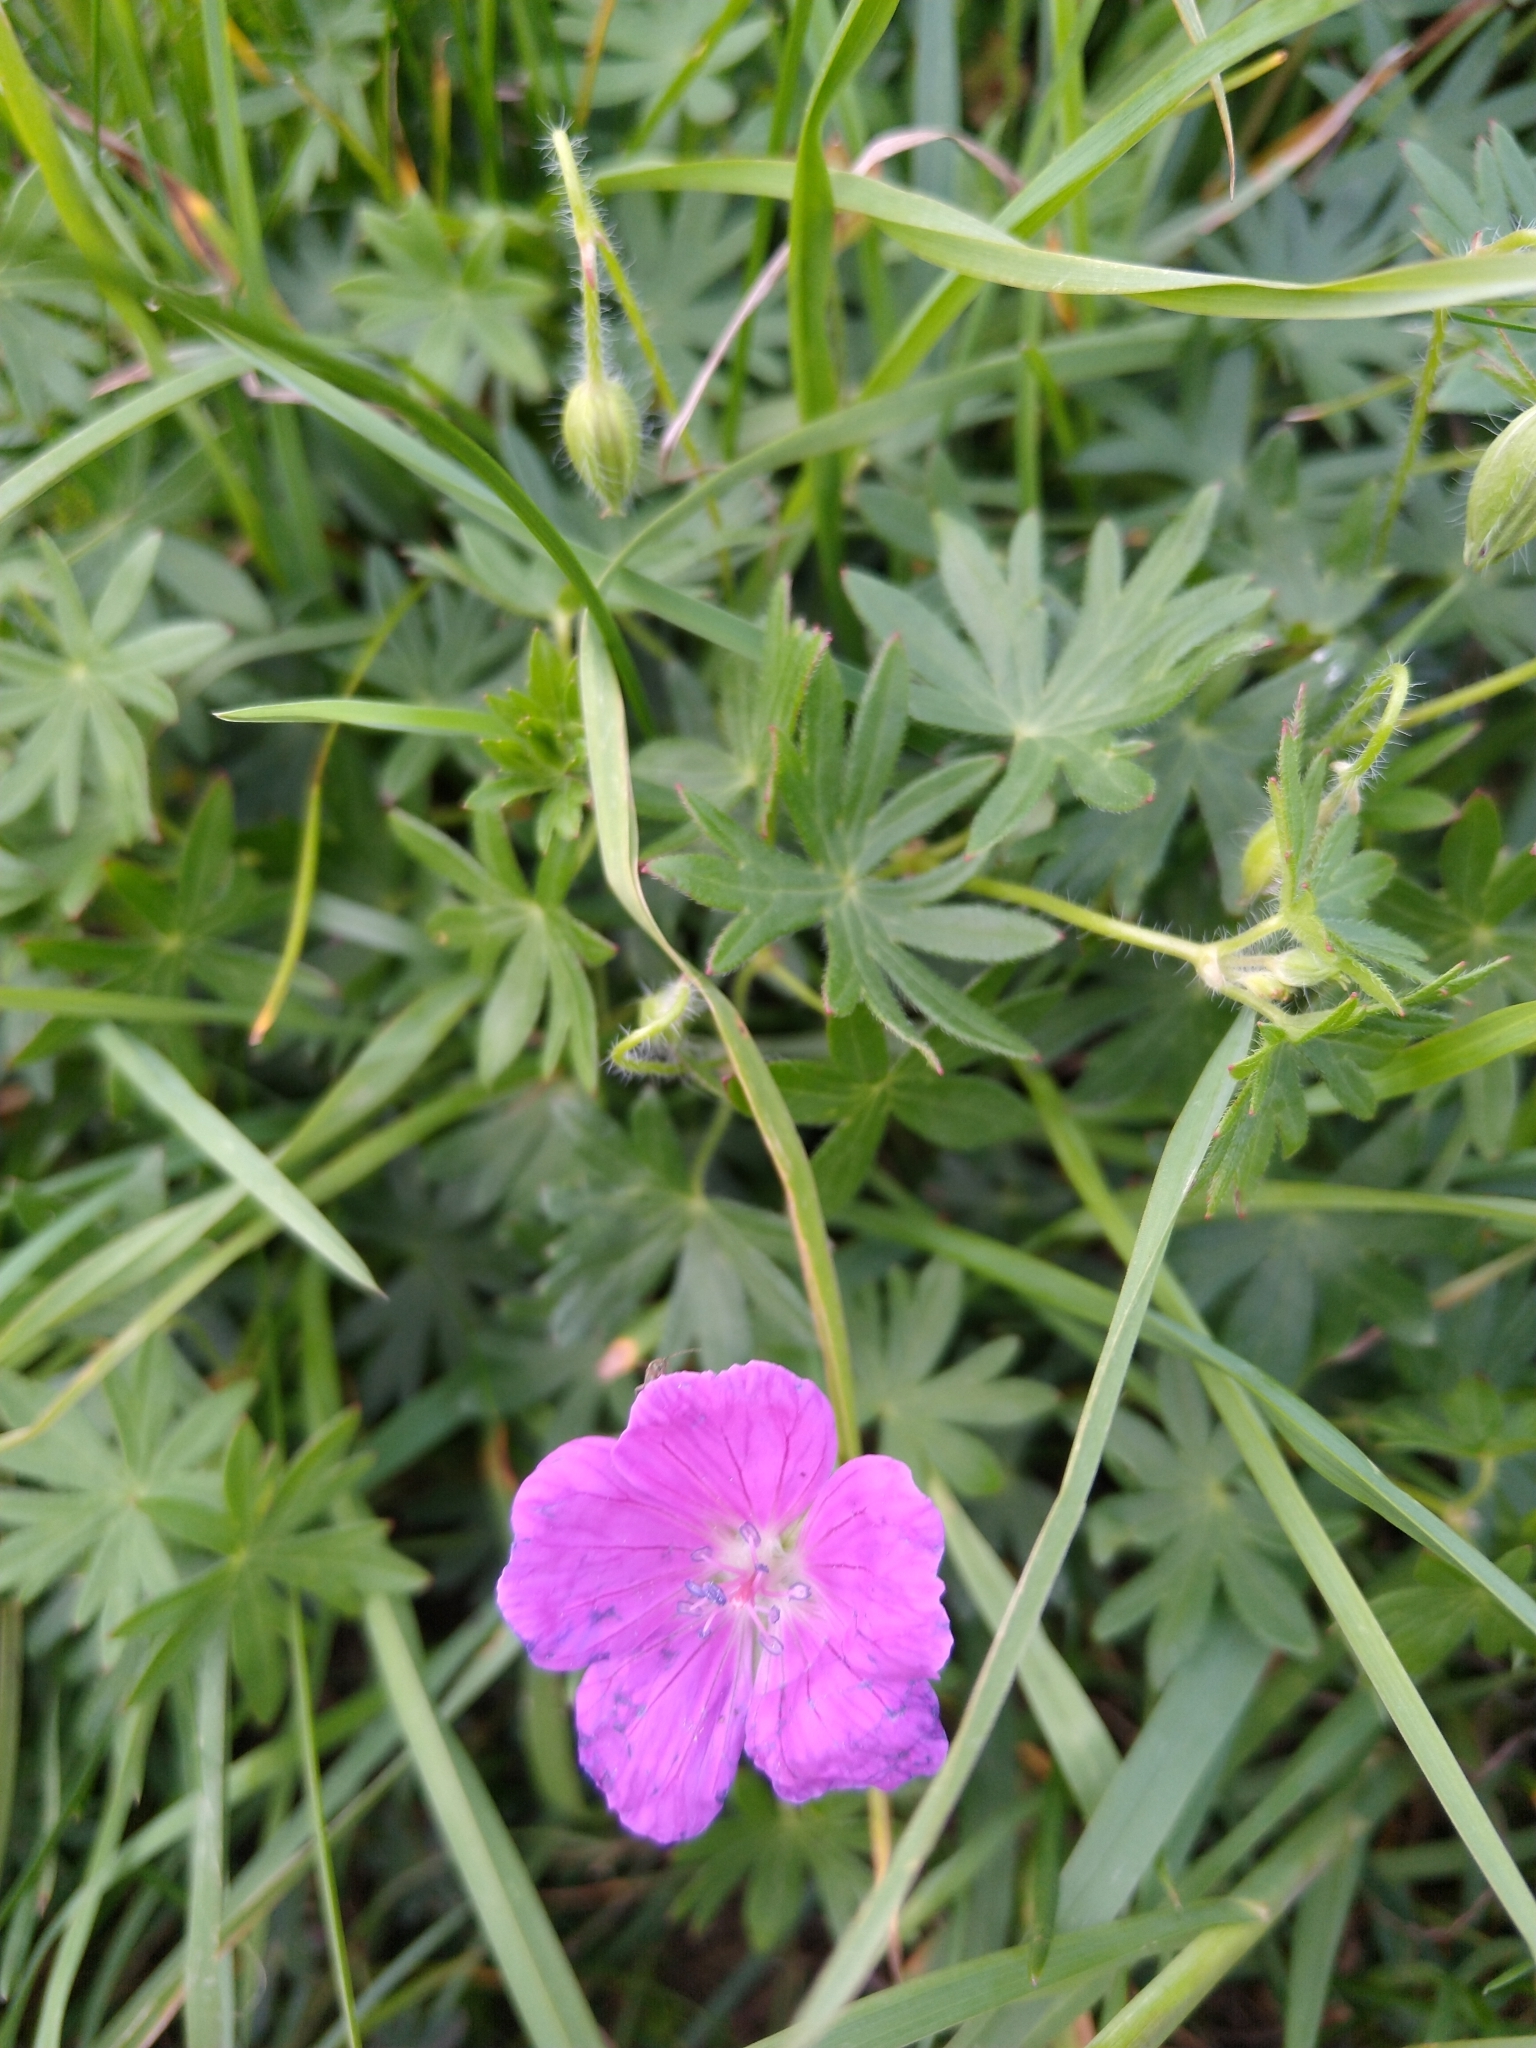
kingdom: Plantae
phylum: Tracheophyta
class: Magnoliopsida
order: Geraniales
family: Geraniaceae
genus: Geranium
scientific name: Geranium sanguineum
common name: Bloody crane's-bill
